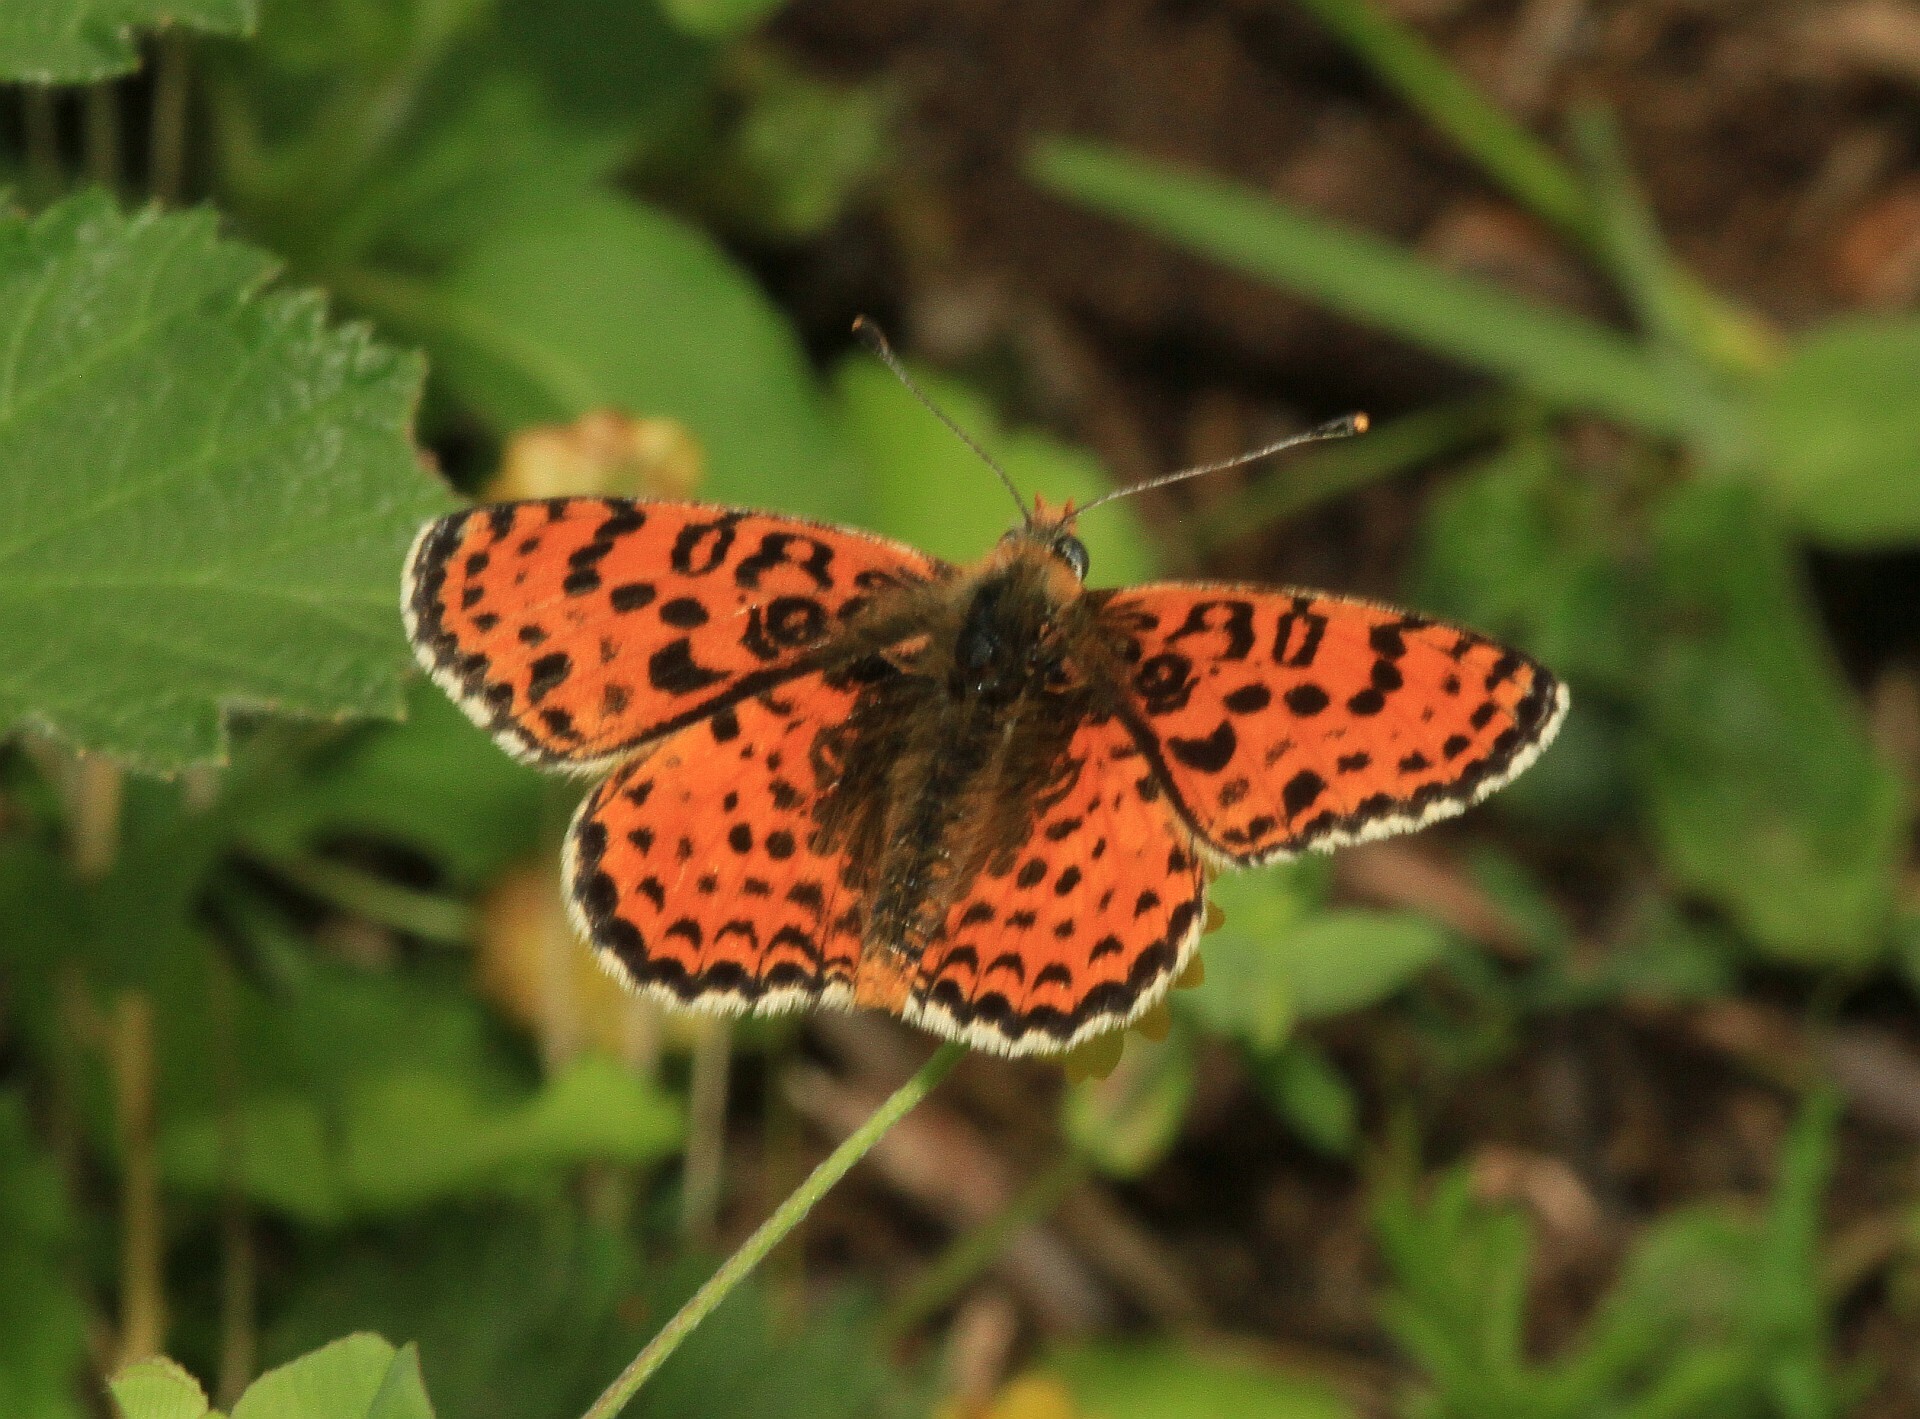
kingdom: Animalia
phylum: Arthropoda
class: Insecta
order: Lepidoptera
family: Nymphalidae
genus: Melitaea
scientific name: Melitaea didyma
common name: Spotted fritillary
